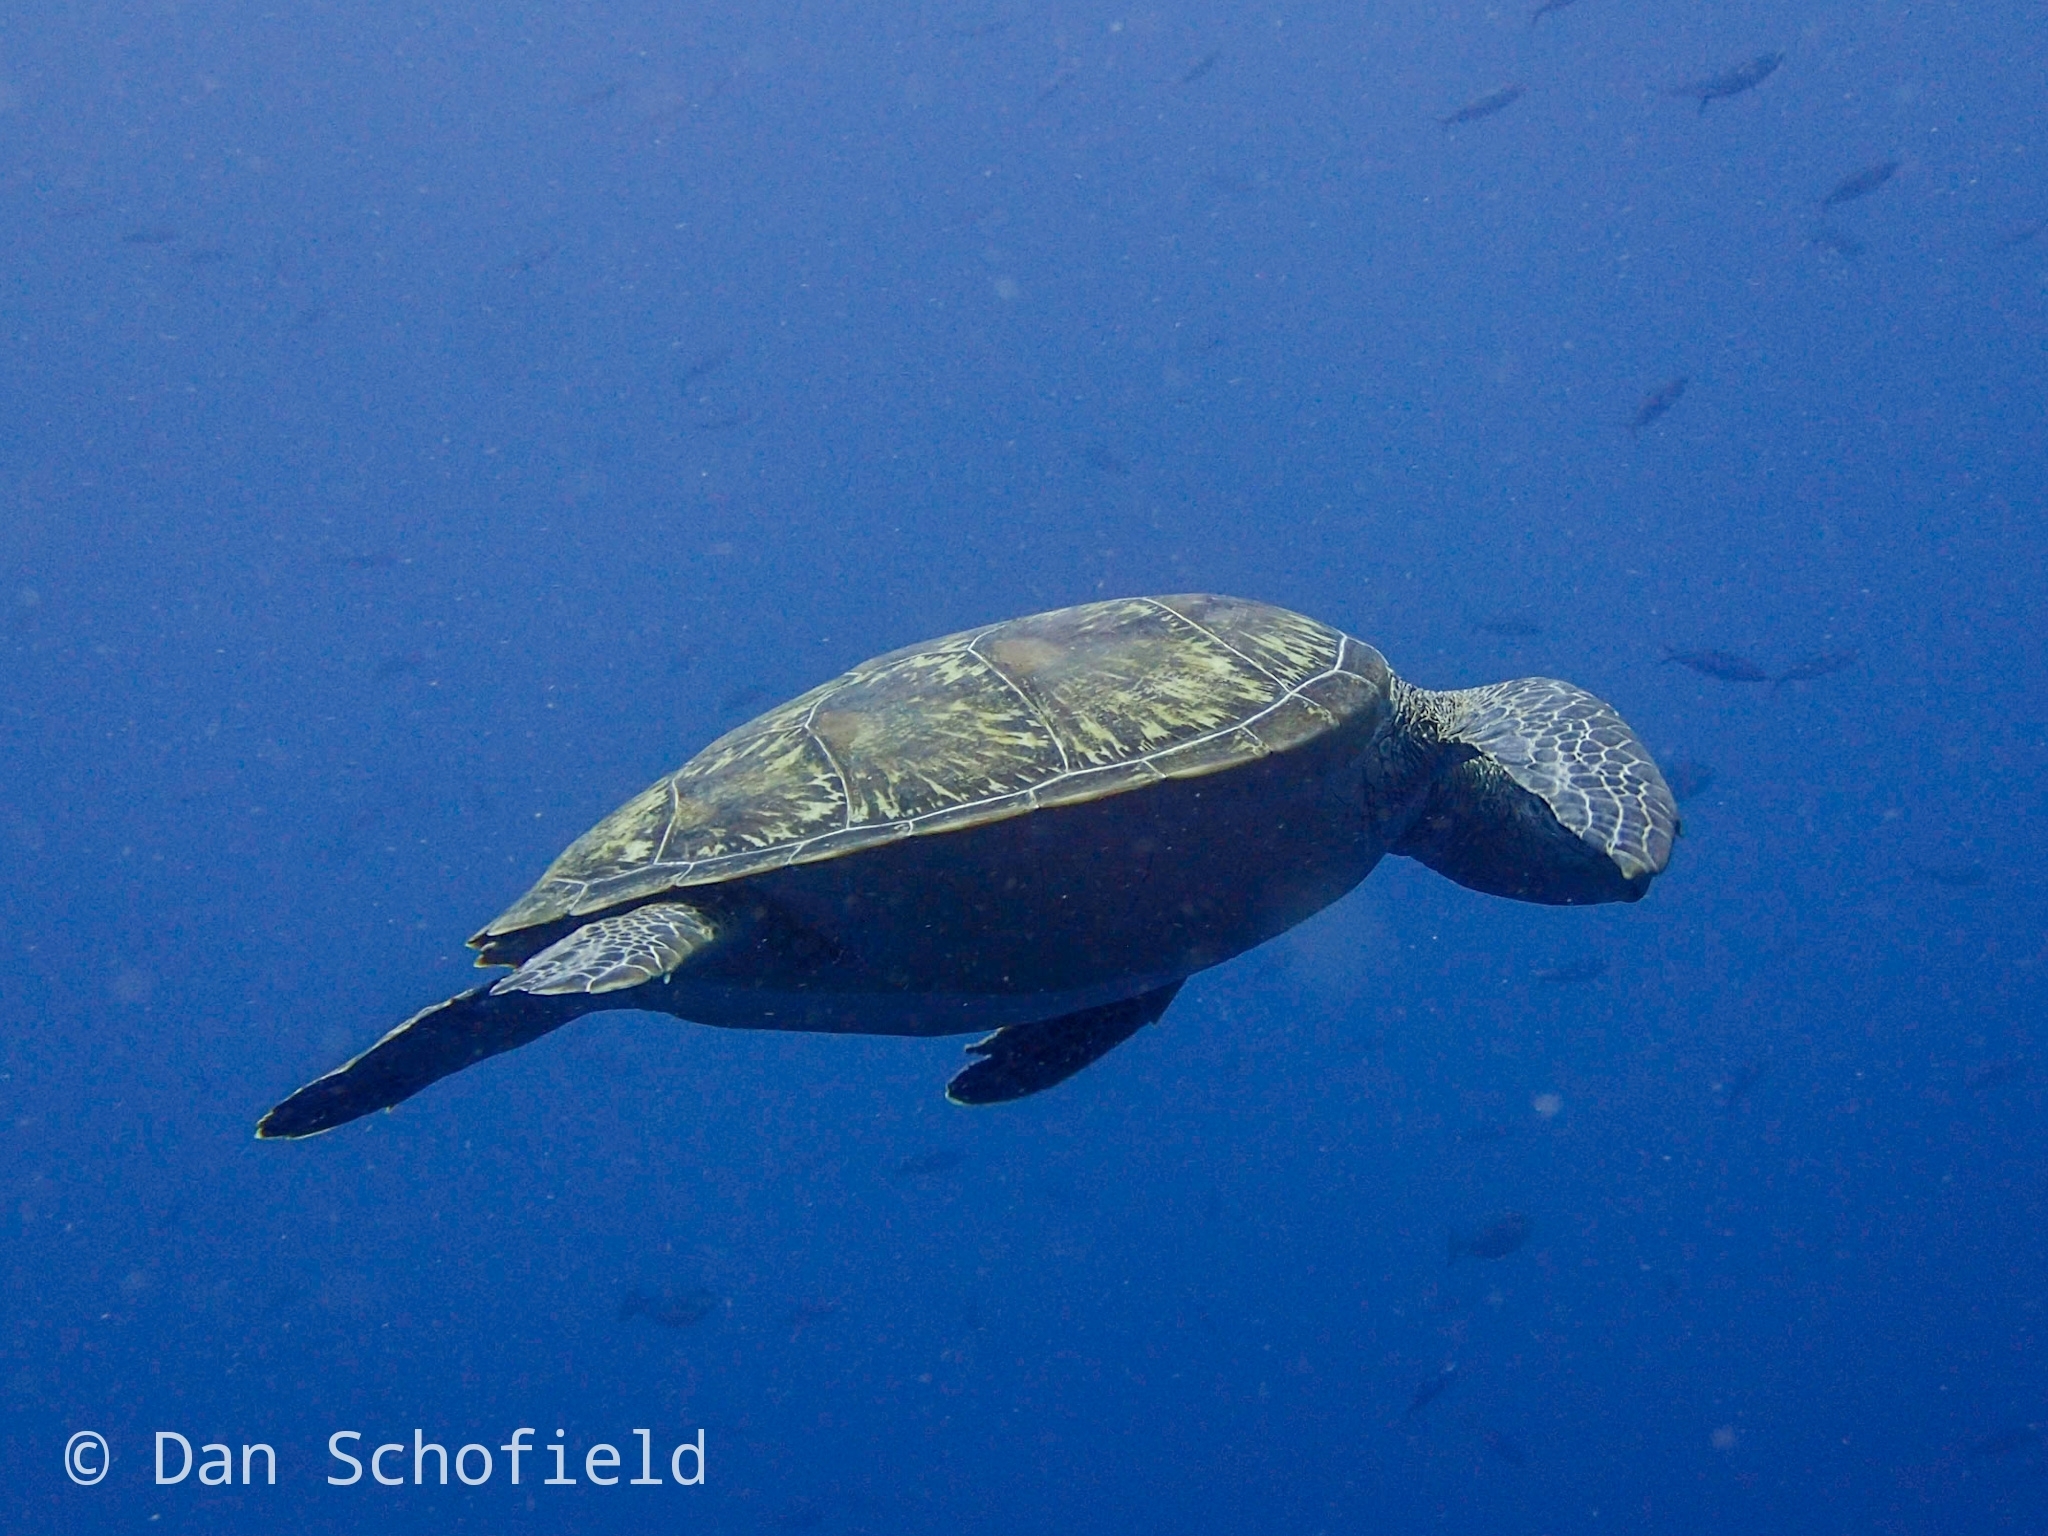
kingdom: Animalia
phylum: Chordata
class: Testudines
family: Cheloniidae
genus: Chelonia
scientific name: Chelonia mydas
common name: Green turtle
